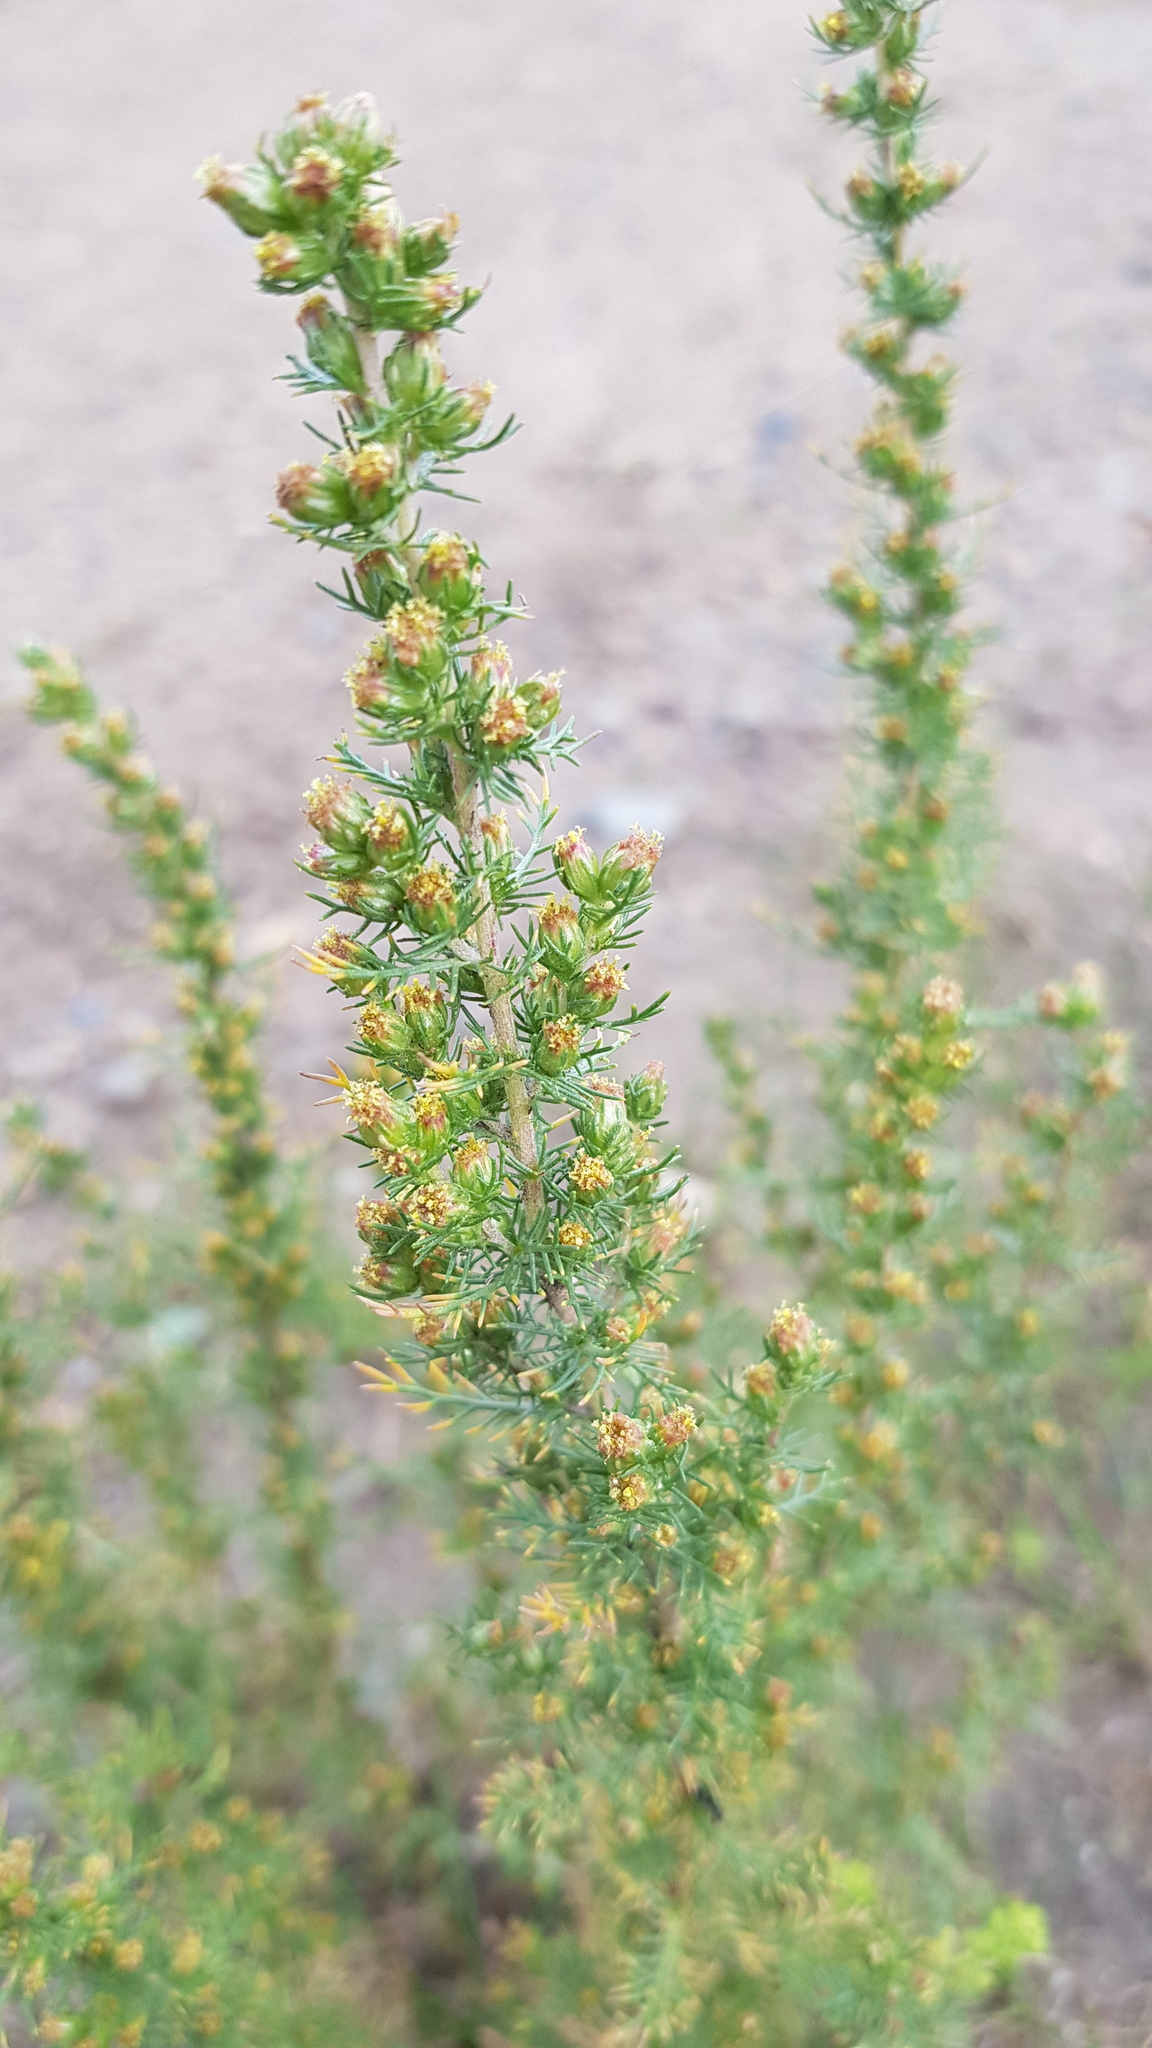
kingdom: Plantae
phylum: Tracheophyta
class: Magnoliopsida
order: Asterales
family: Asteraceae
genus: Neopallasia
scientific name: Neopallasia pectinata
